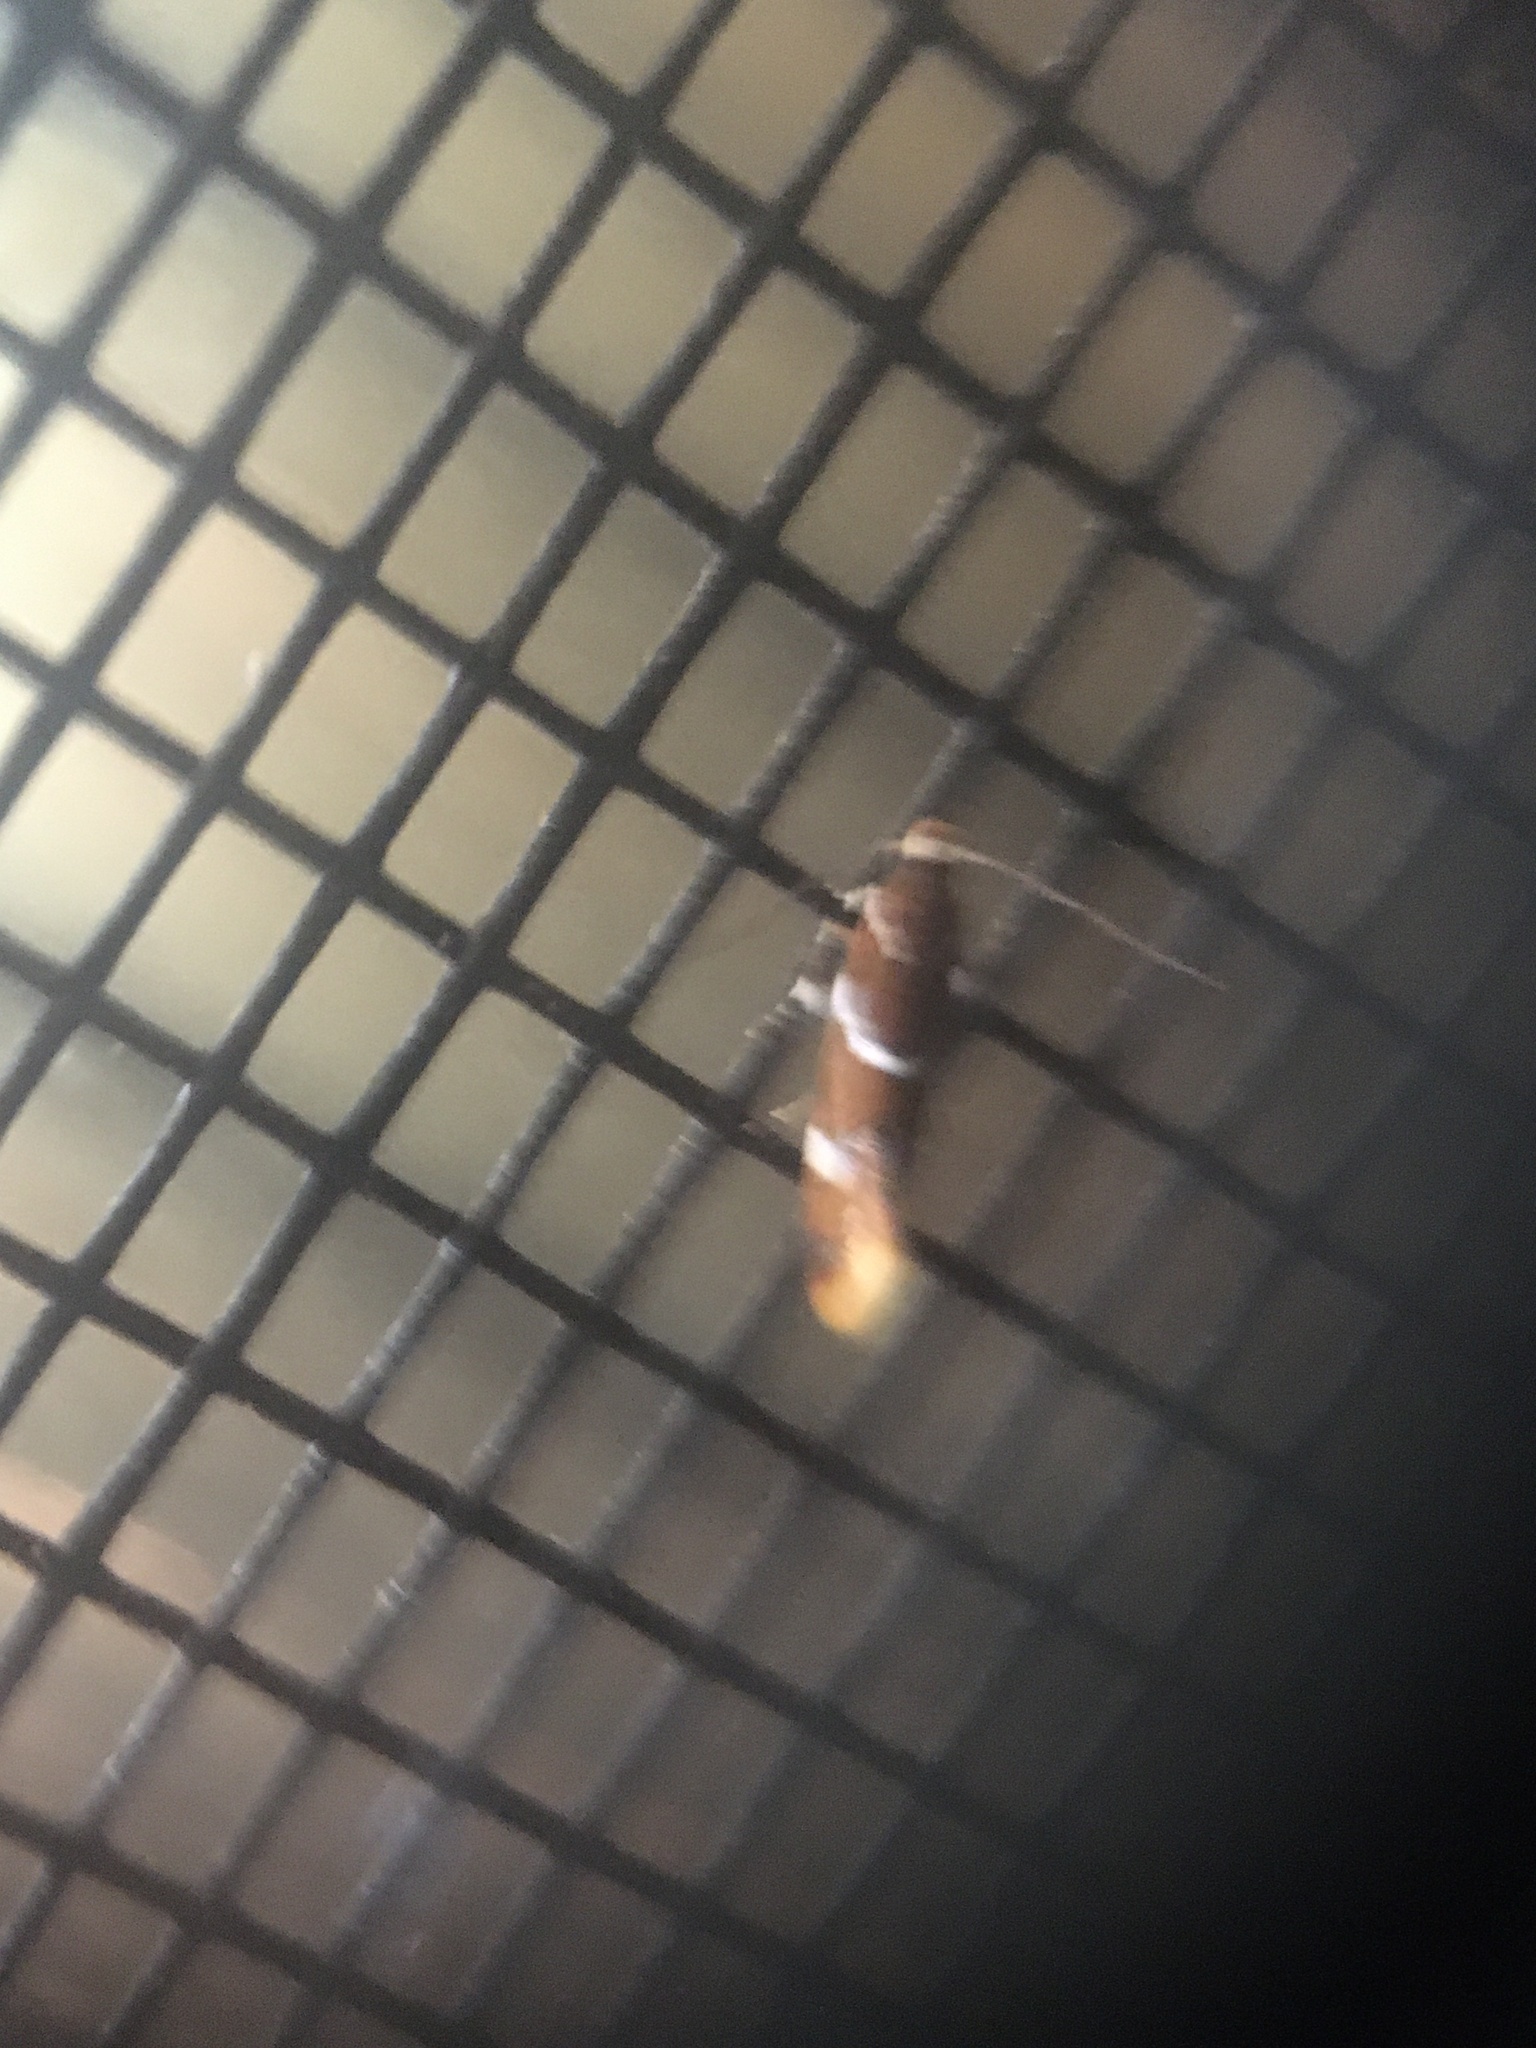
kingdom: Animalia
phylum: Arthropoda
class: Insecta
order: Lepidoptera
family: Oecophoridae
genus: Promalactis
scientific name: Promalactis suzukiella
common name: Moth
